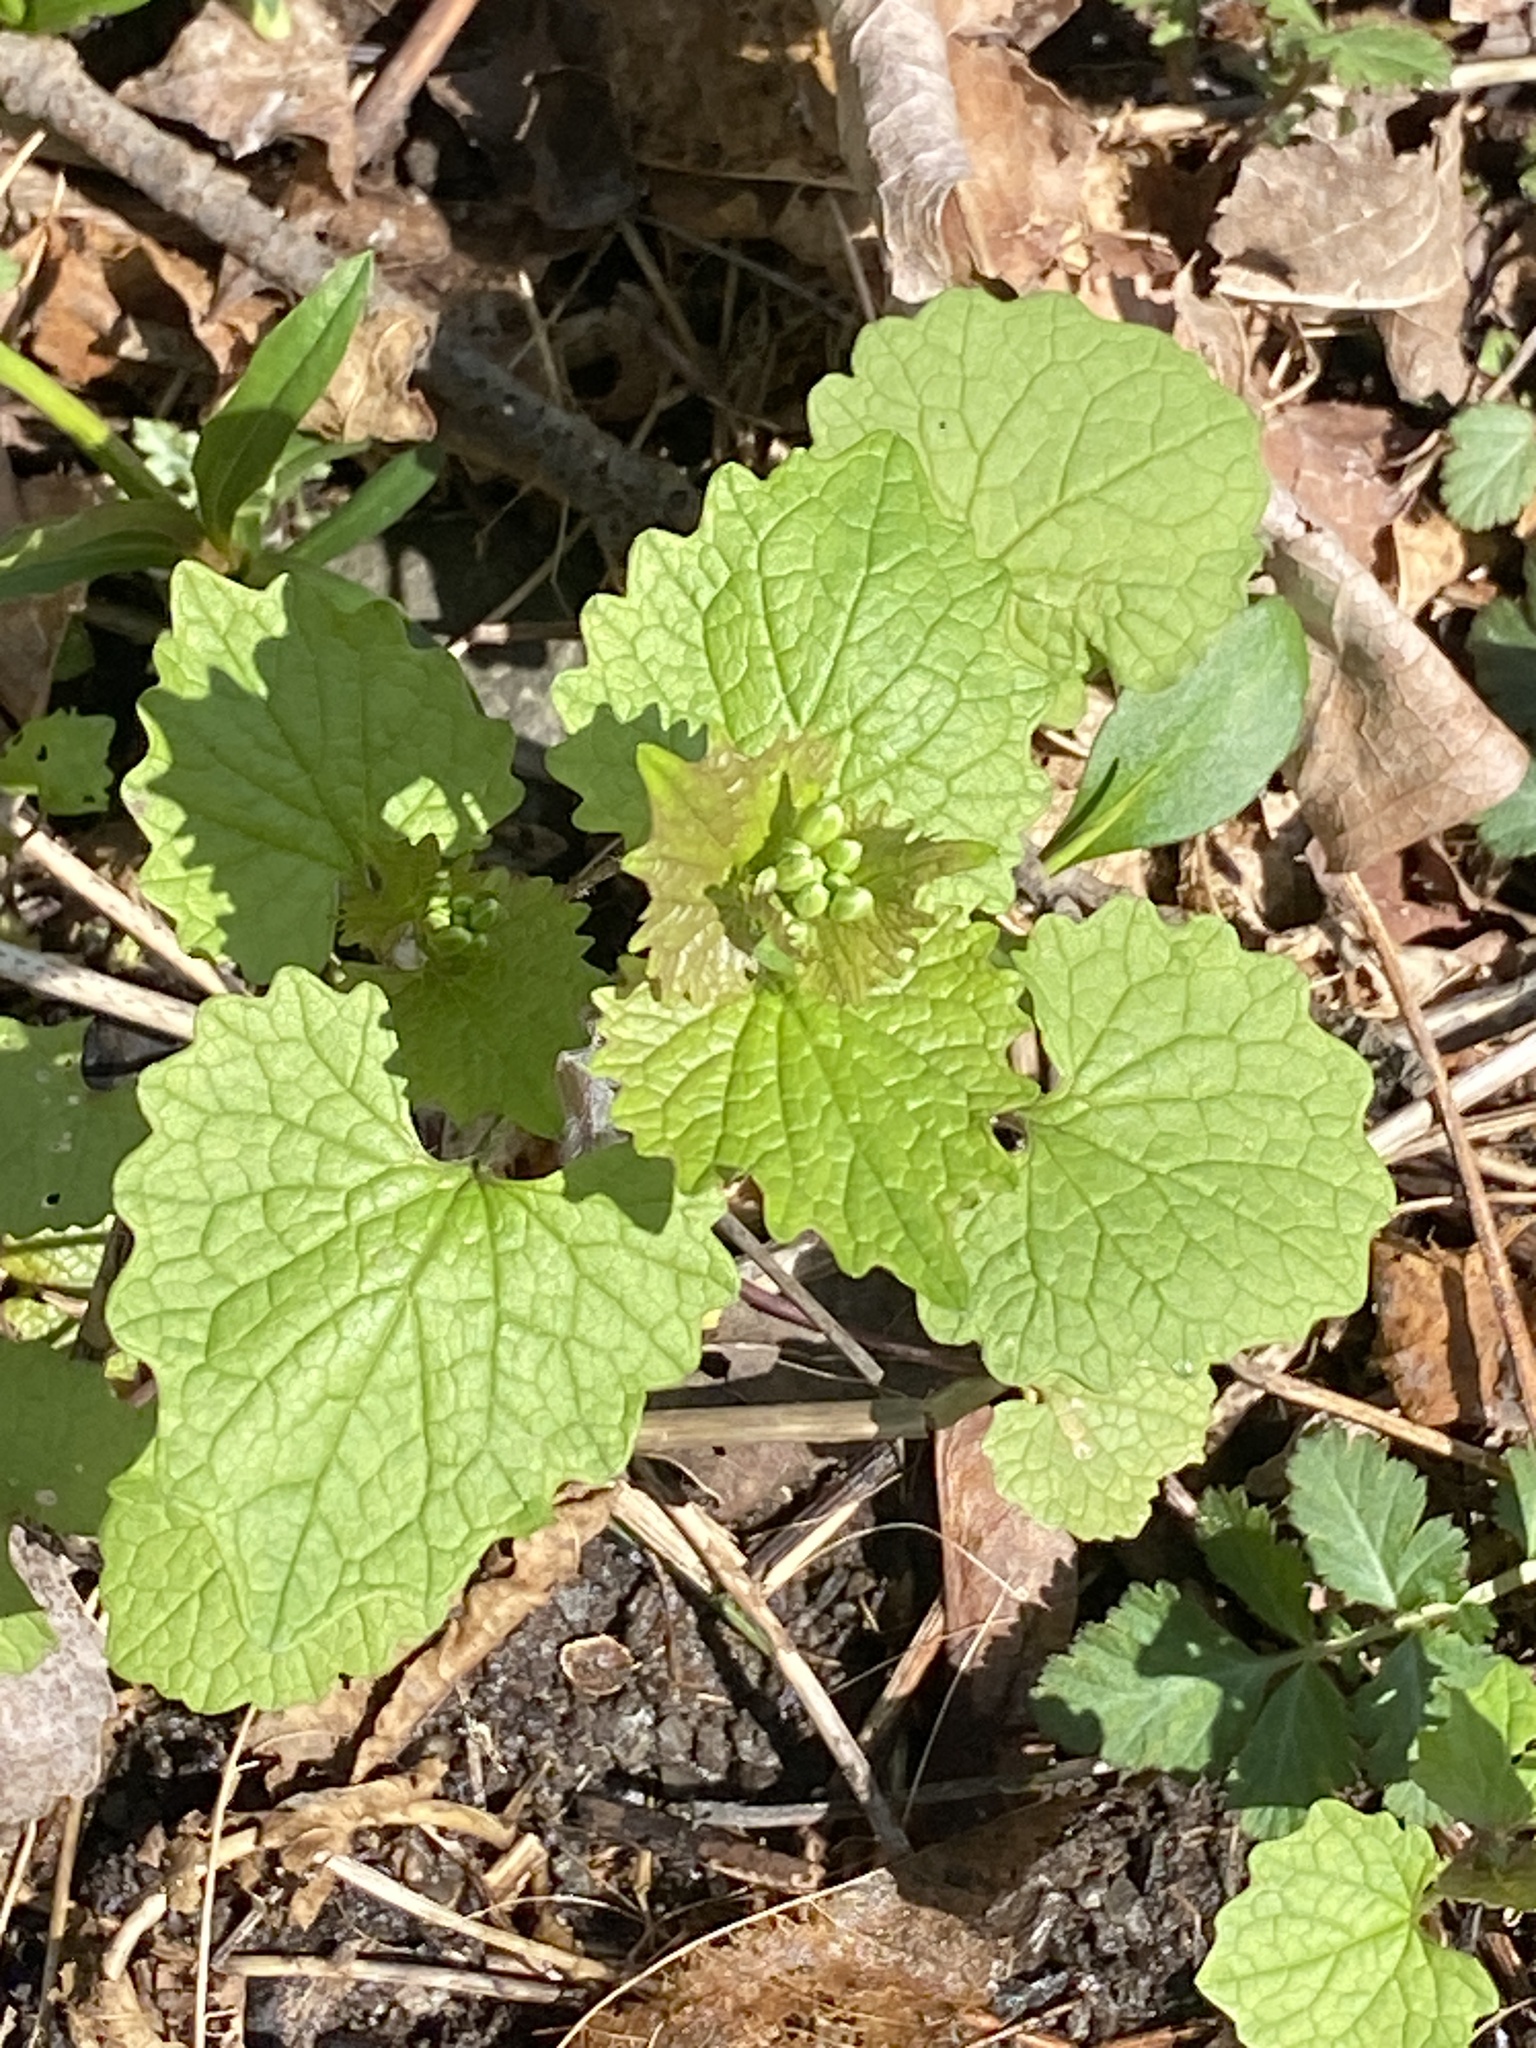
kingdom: Plantae
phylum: Tracheophyta
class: Magnoliopsida
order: Brassicales
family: Brassicaceae
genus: Alliaria
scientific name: Alliaria petiolata
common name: Garlic mustard
